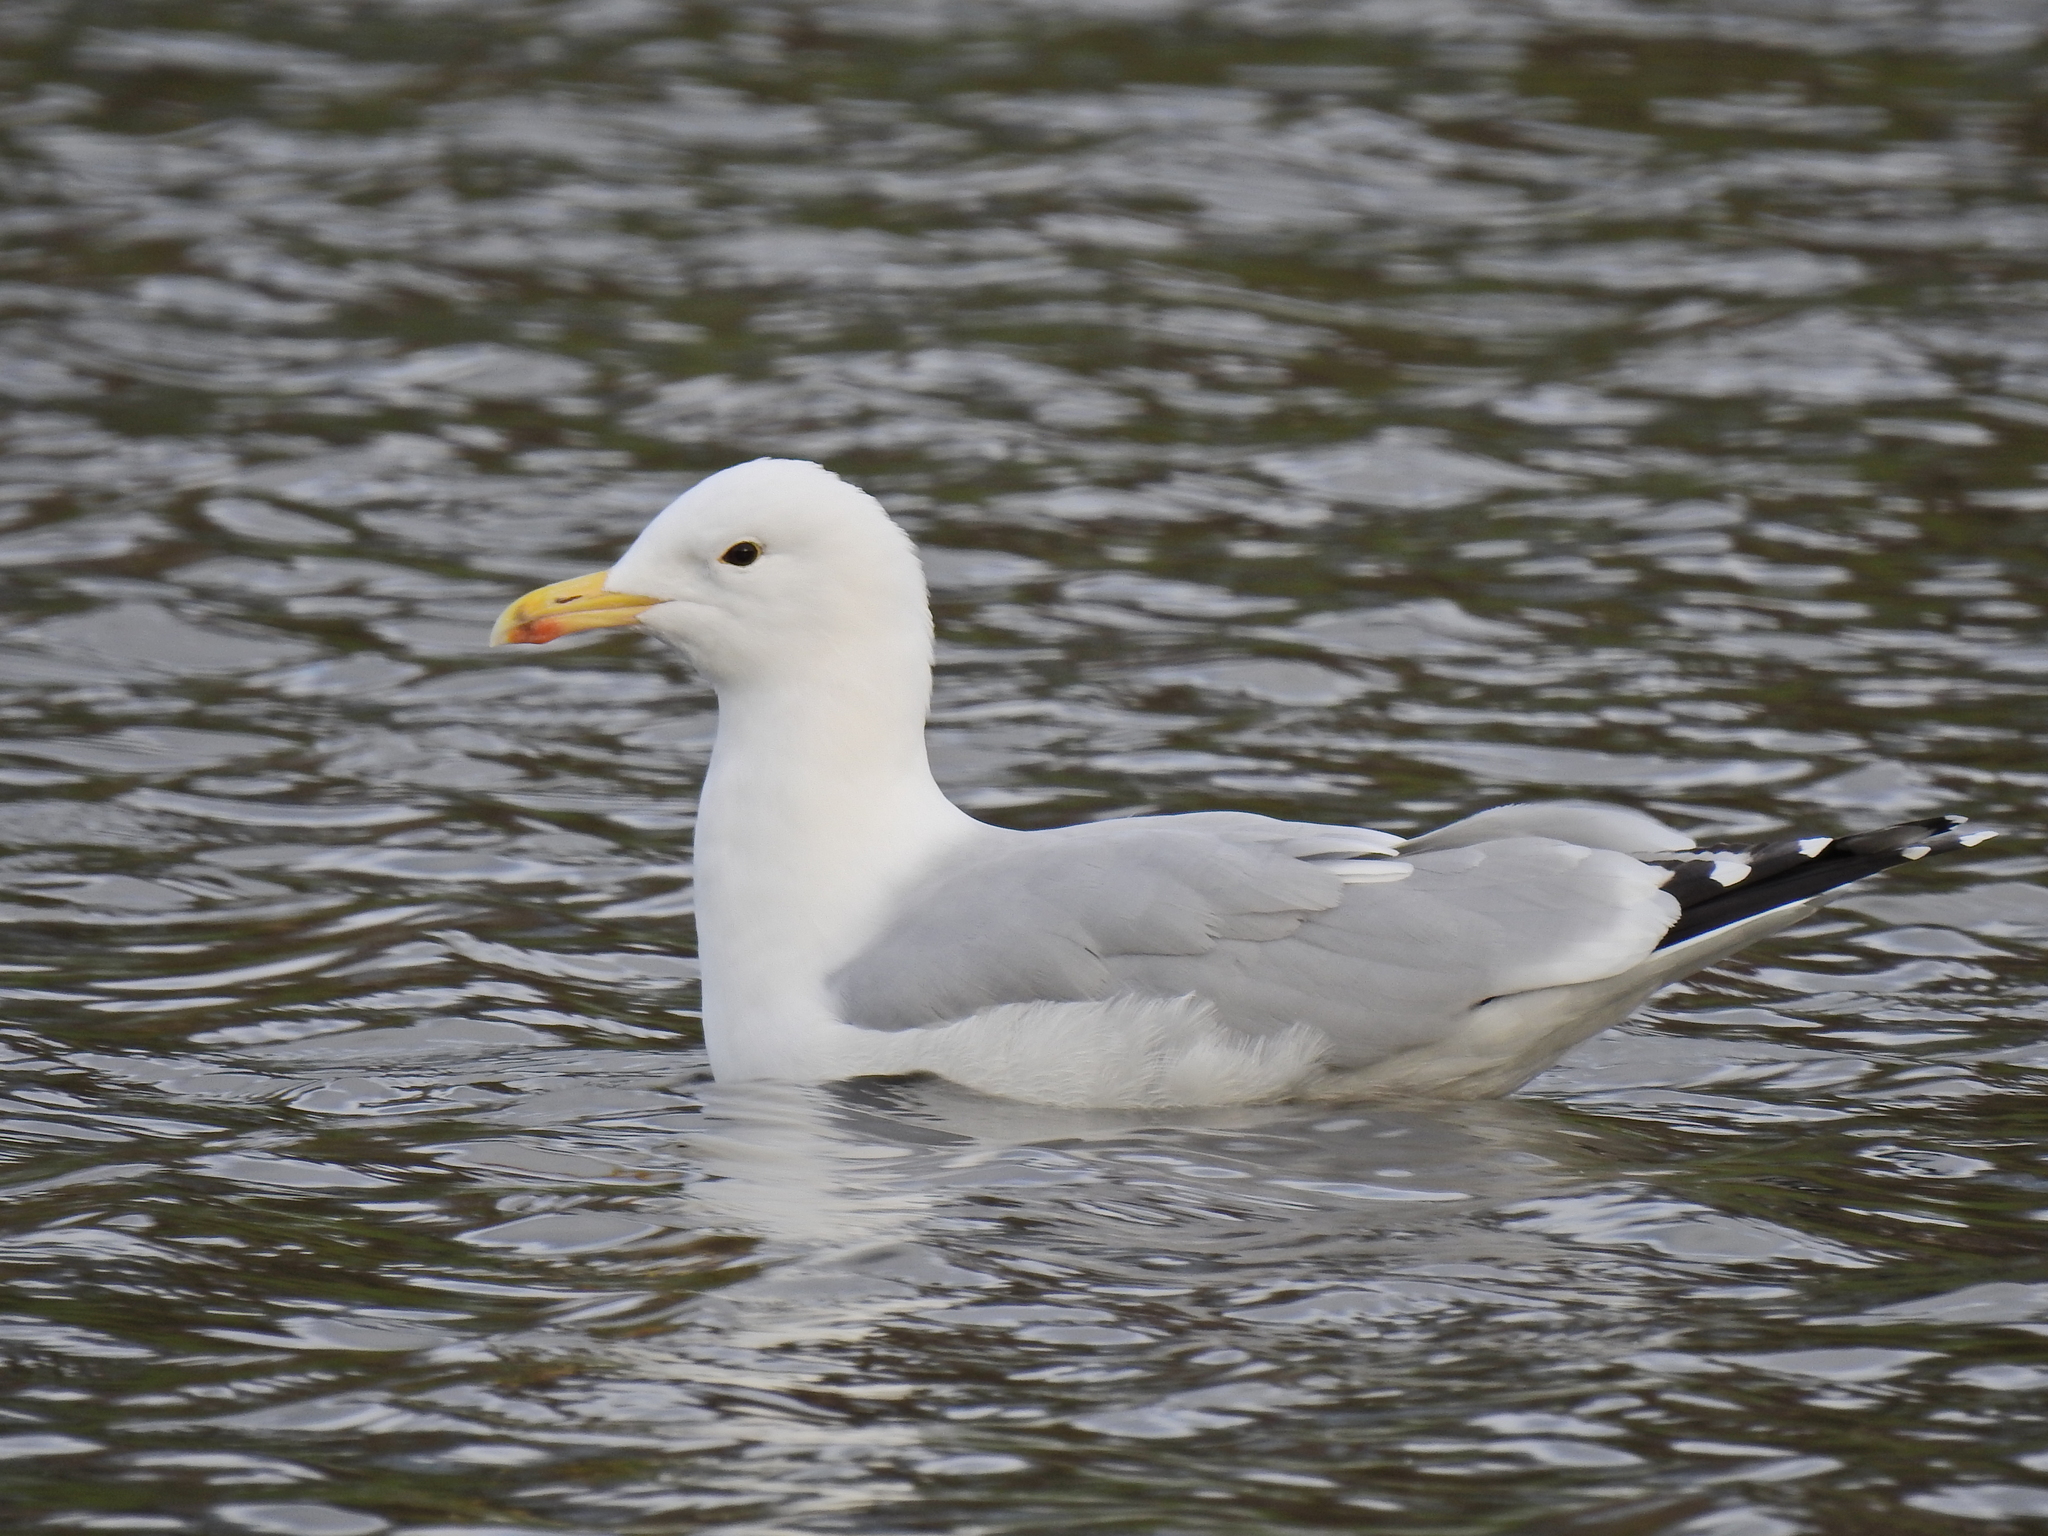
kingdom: Animalia
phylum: Chordata
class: Aves
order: Charadriiformes
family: Laridae
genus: Larus
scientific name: Larus argentatus
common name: Herring gull
